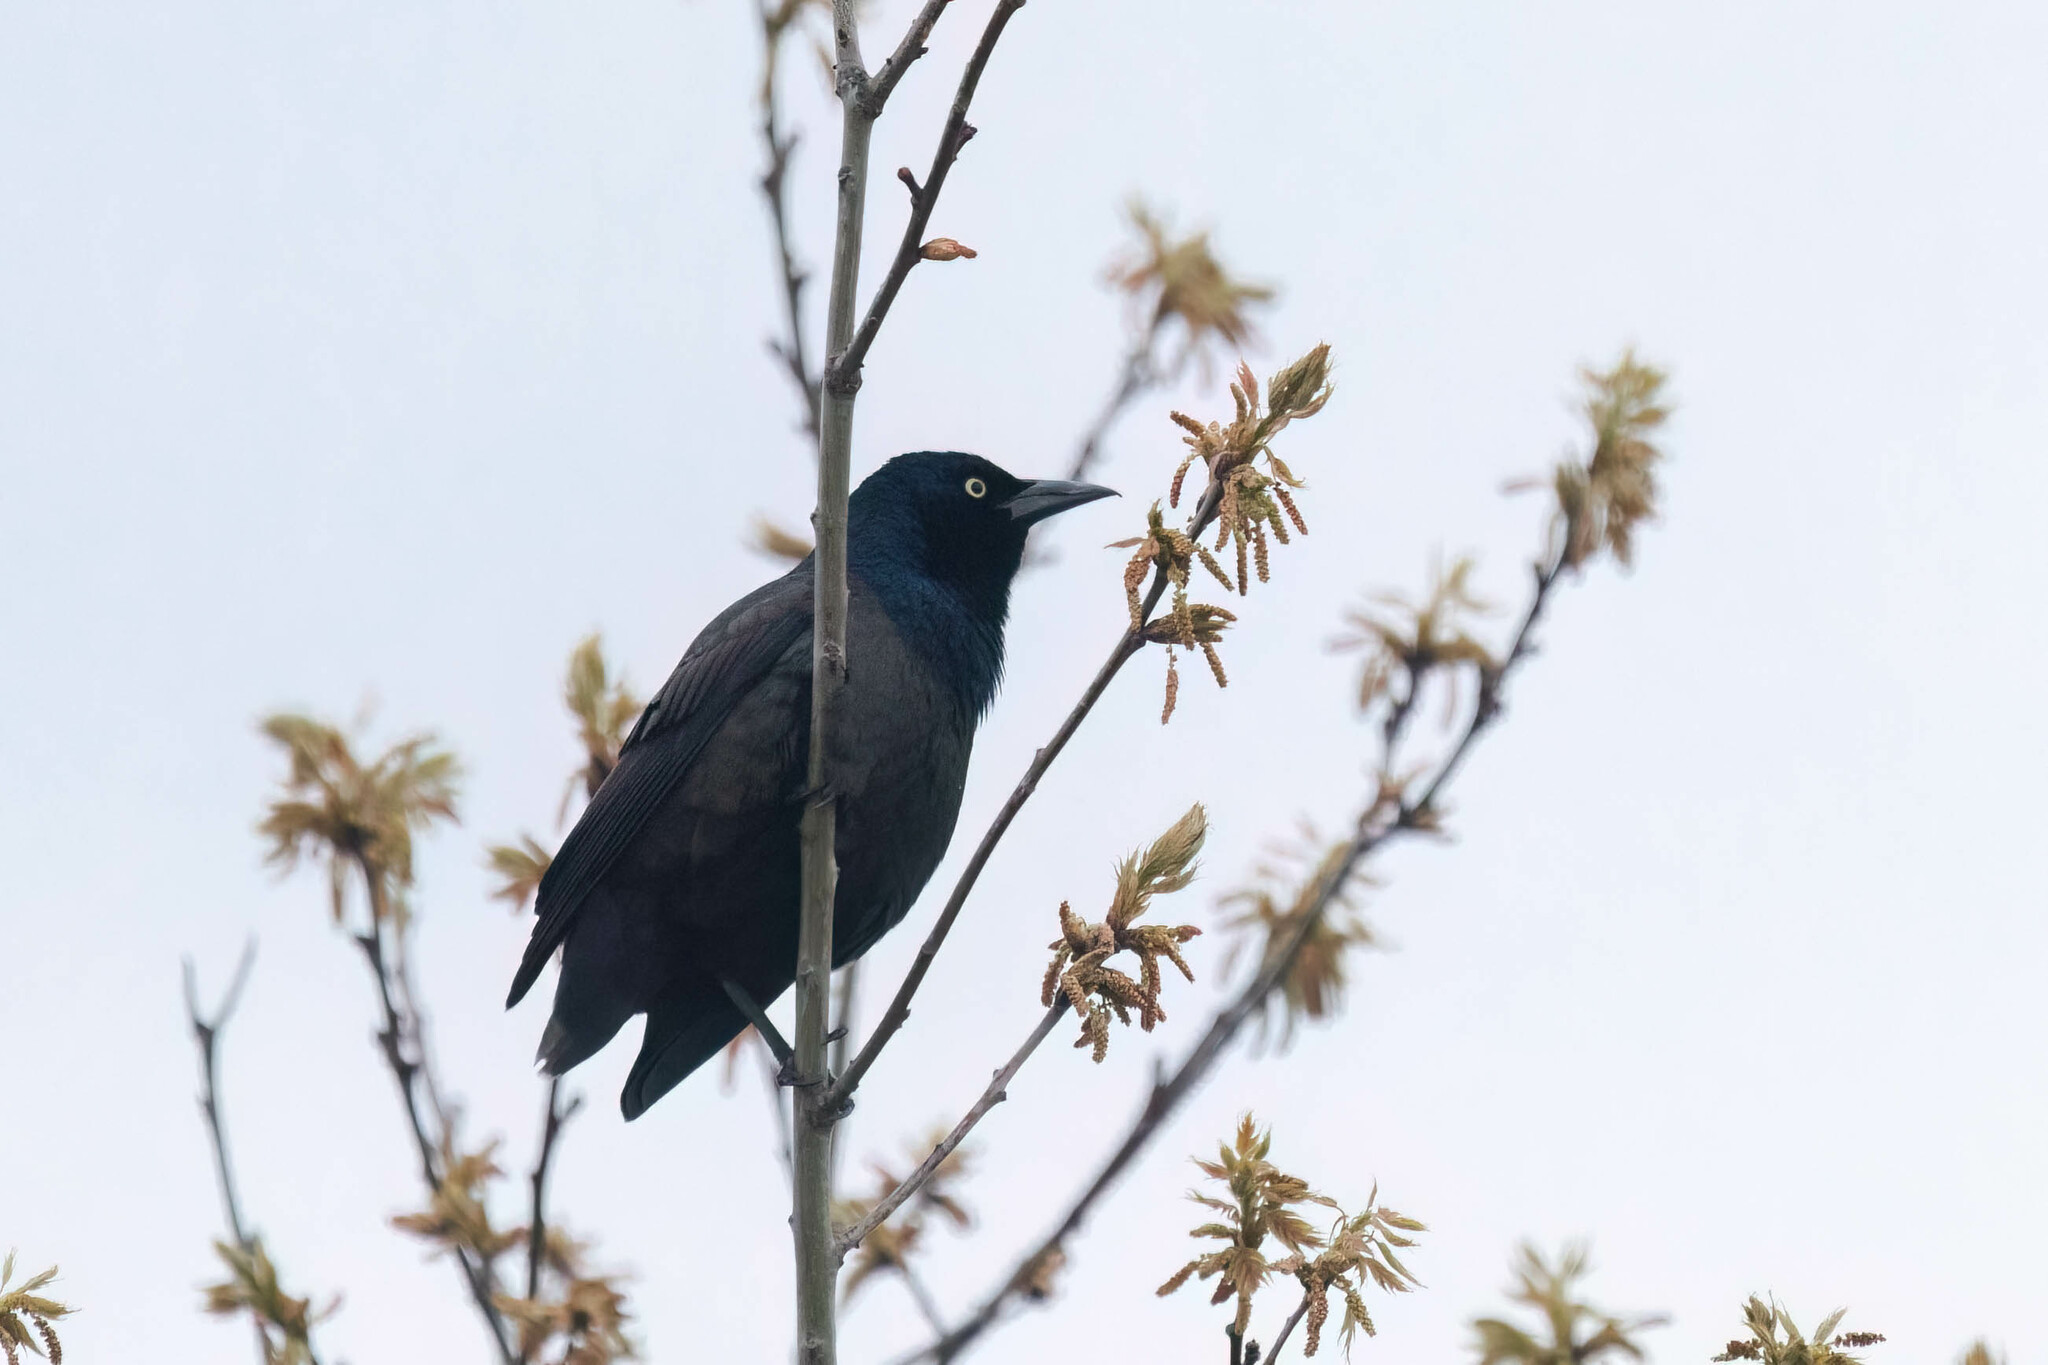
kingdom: Animalia
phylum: Chordata
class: Aves
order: Passeriformes
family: Icteridae
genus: Quiscalus
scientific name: Quiscalus quiscula
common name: Common grackle
